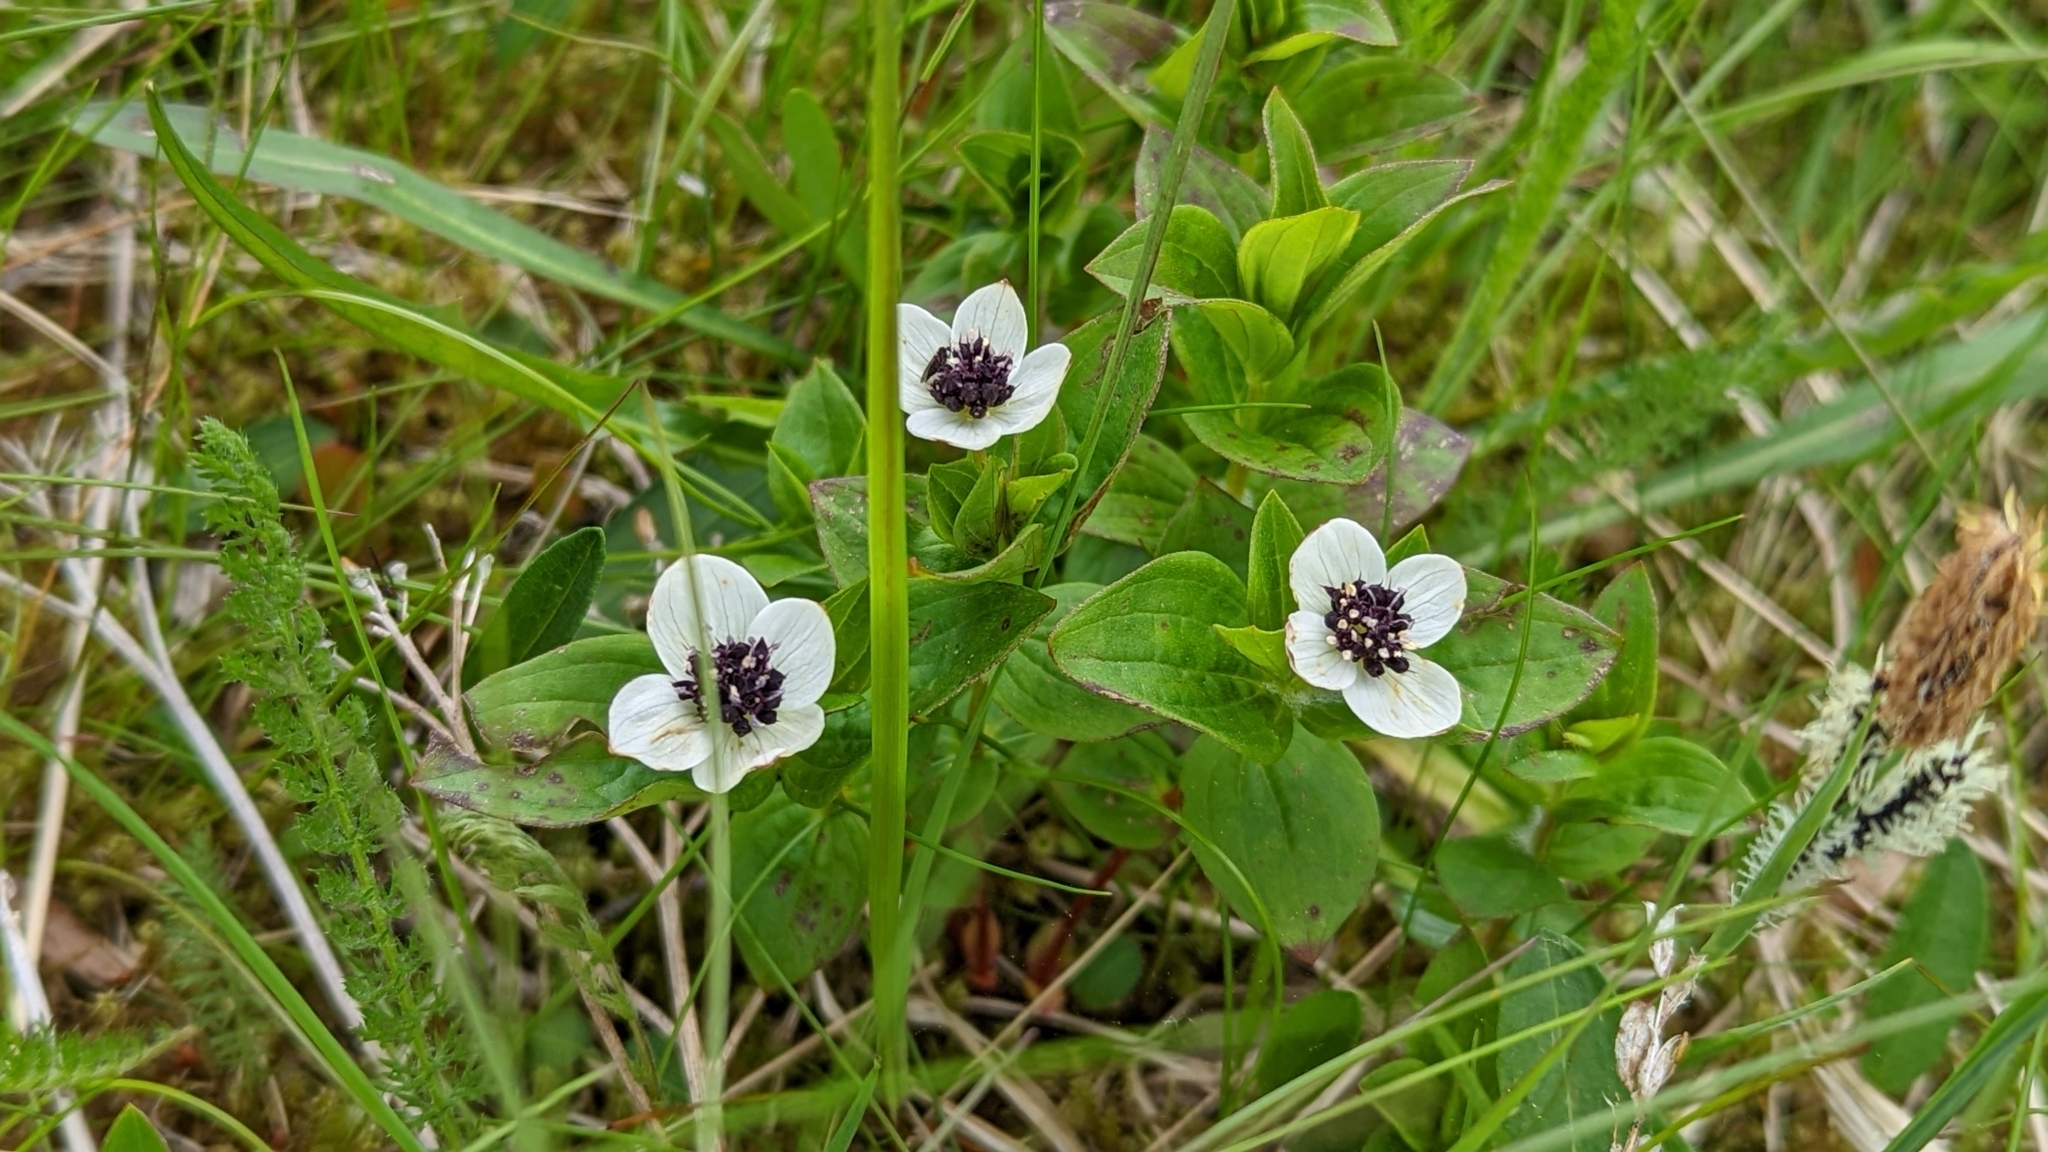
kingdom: Plantae
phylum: Tracheophyta
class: Magnoliopsida
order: Cornales
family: Cornaceae
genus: Cornus
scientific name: Cornus suecica
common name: Dwarf cornel
